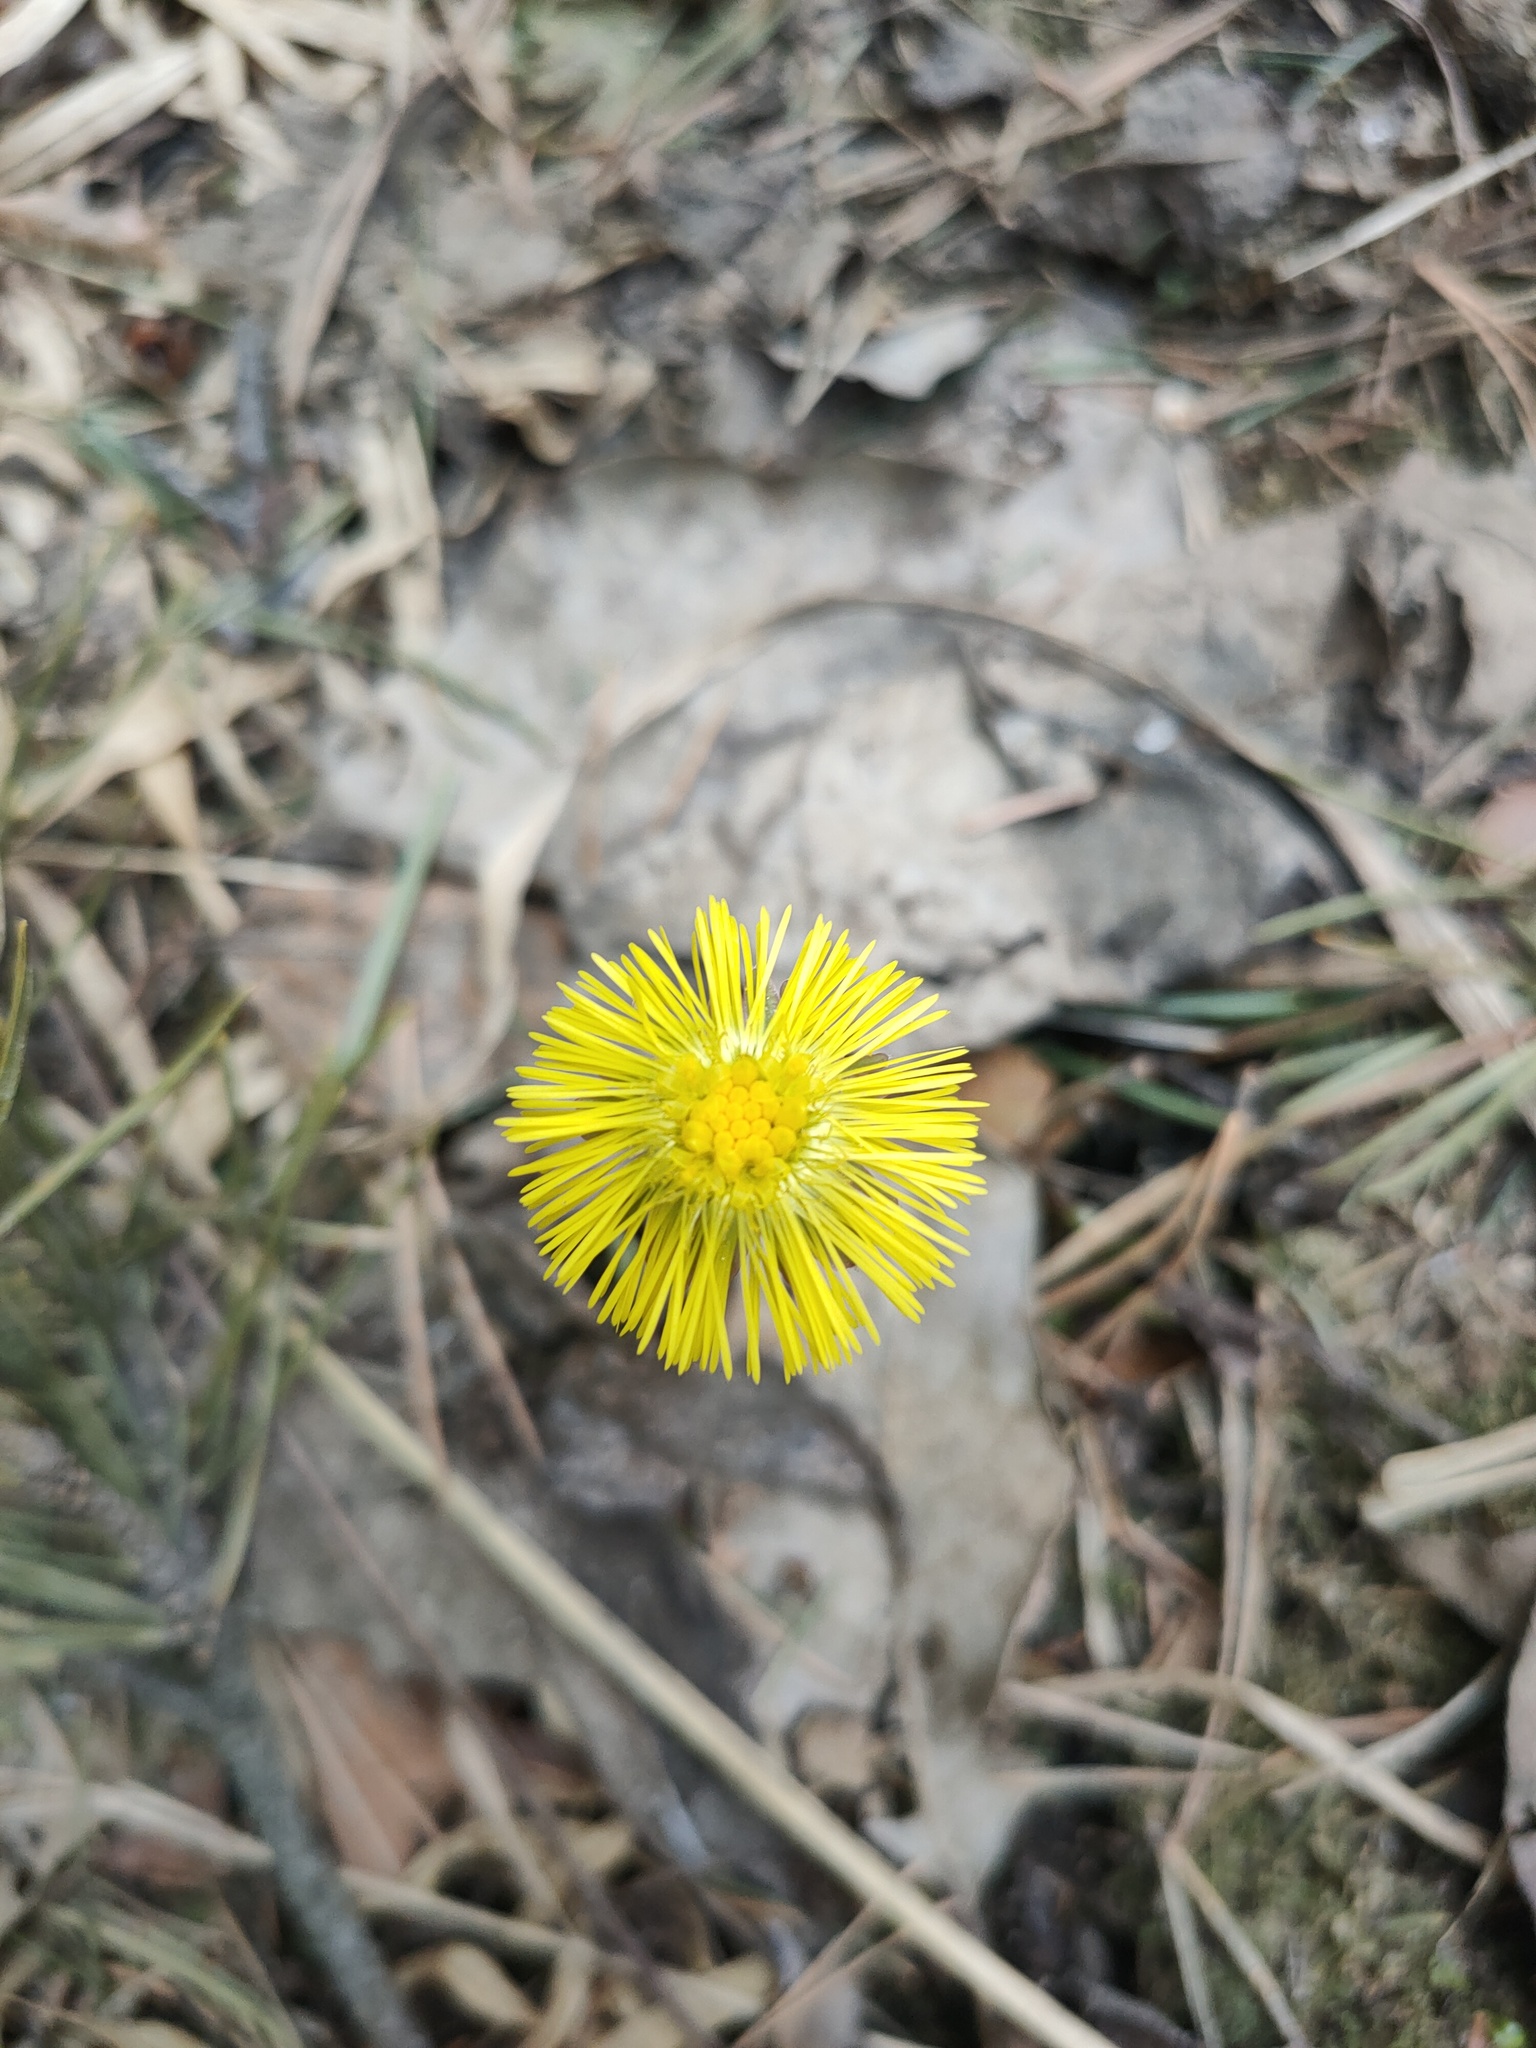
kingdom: Plantae
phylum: Tracheophyta
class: Magnoliopsida
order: Asterales
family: Asteraceae
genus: Tussilago
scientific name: Tussilago farfara
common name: Coltsfoot
